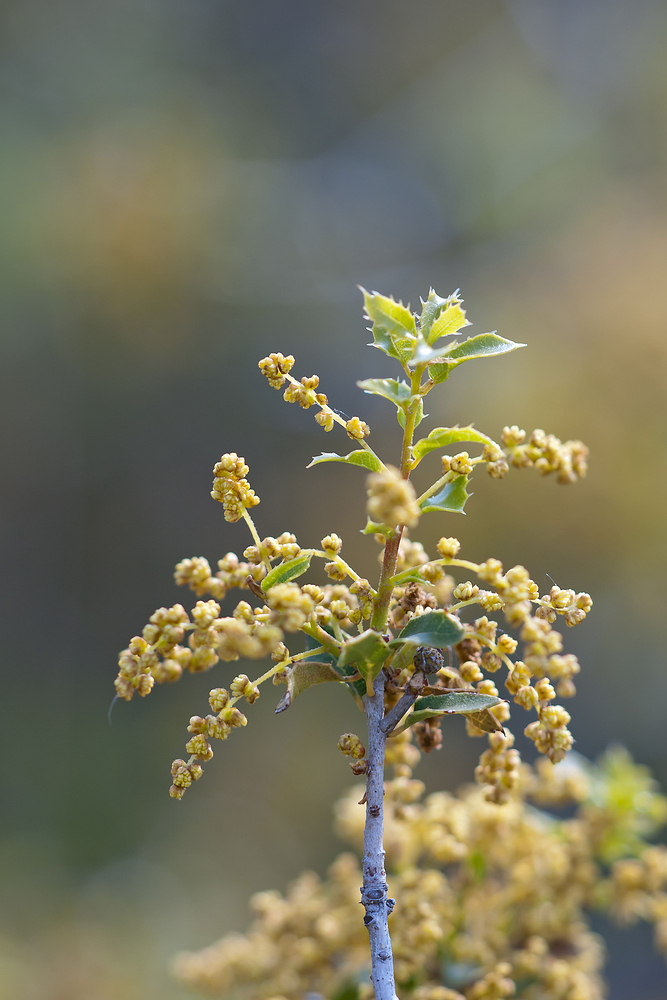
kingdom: Plantae
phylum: Tracheophyta
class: Magnoliopsida
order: Fagales
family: Fagaceae
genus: Quercus
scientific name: Quercus coccifera
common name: Kermes oak
